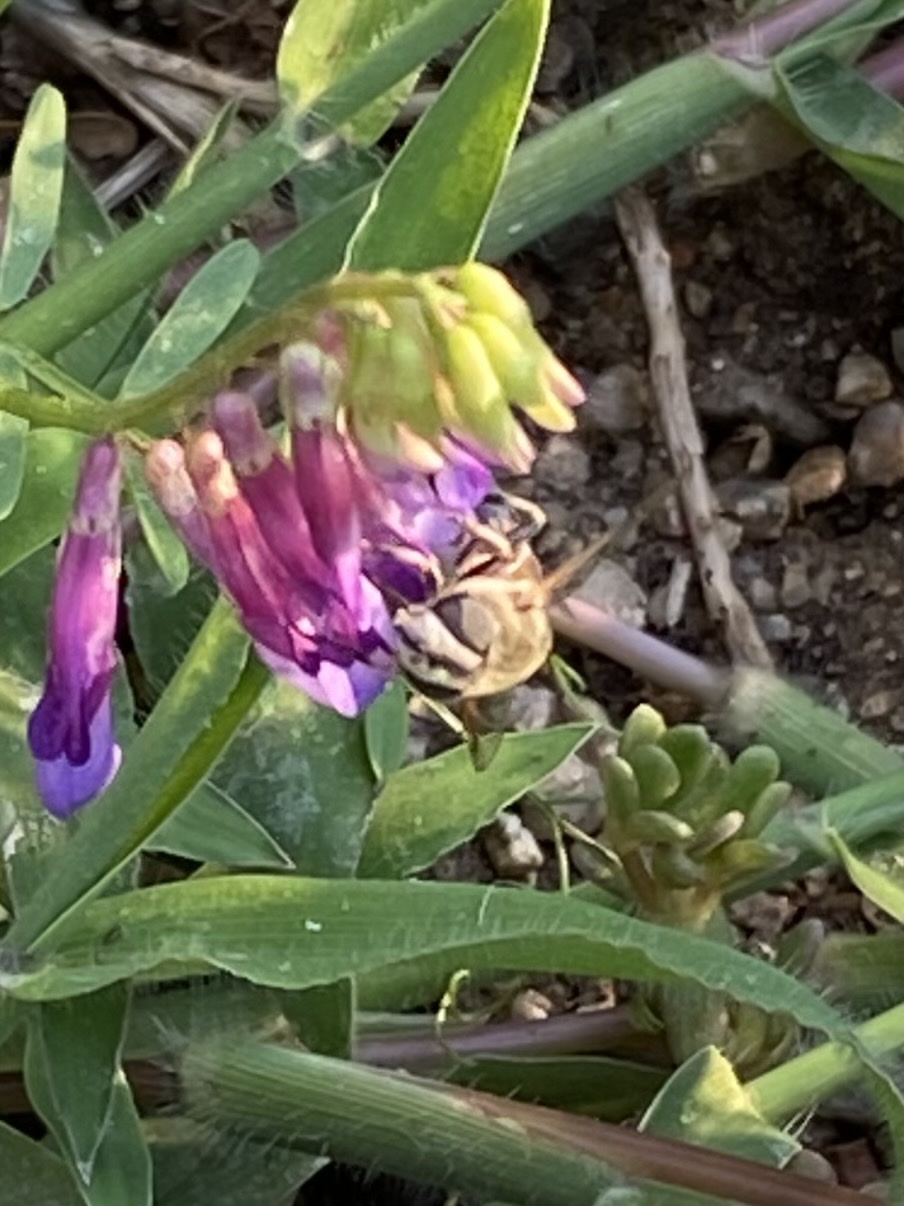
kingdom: Animalia
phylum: Arthropoda
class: Insecta
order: Diptera
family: Syrphidae
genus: Eristalis
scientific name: Eristalis stipator
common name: Yellow-shouldered drone fly
